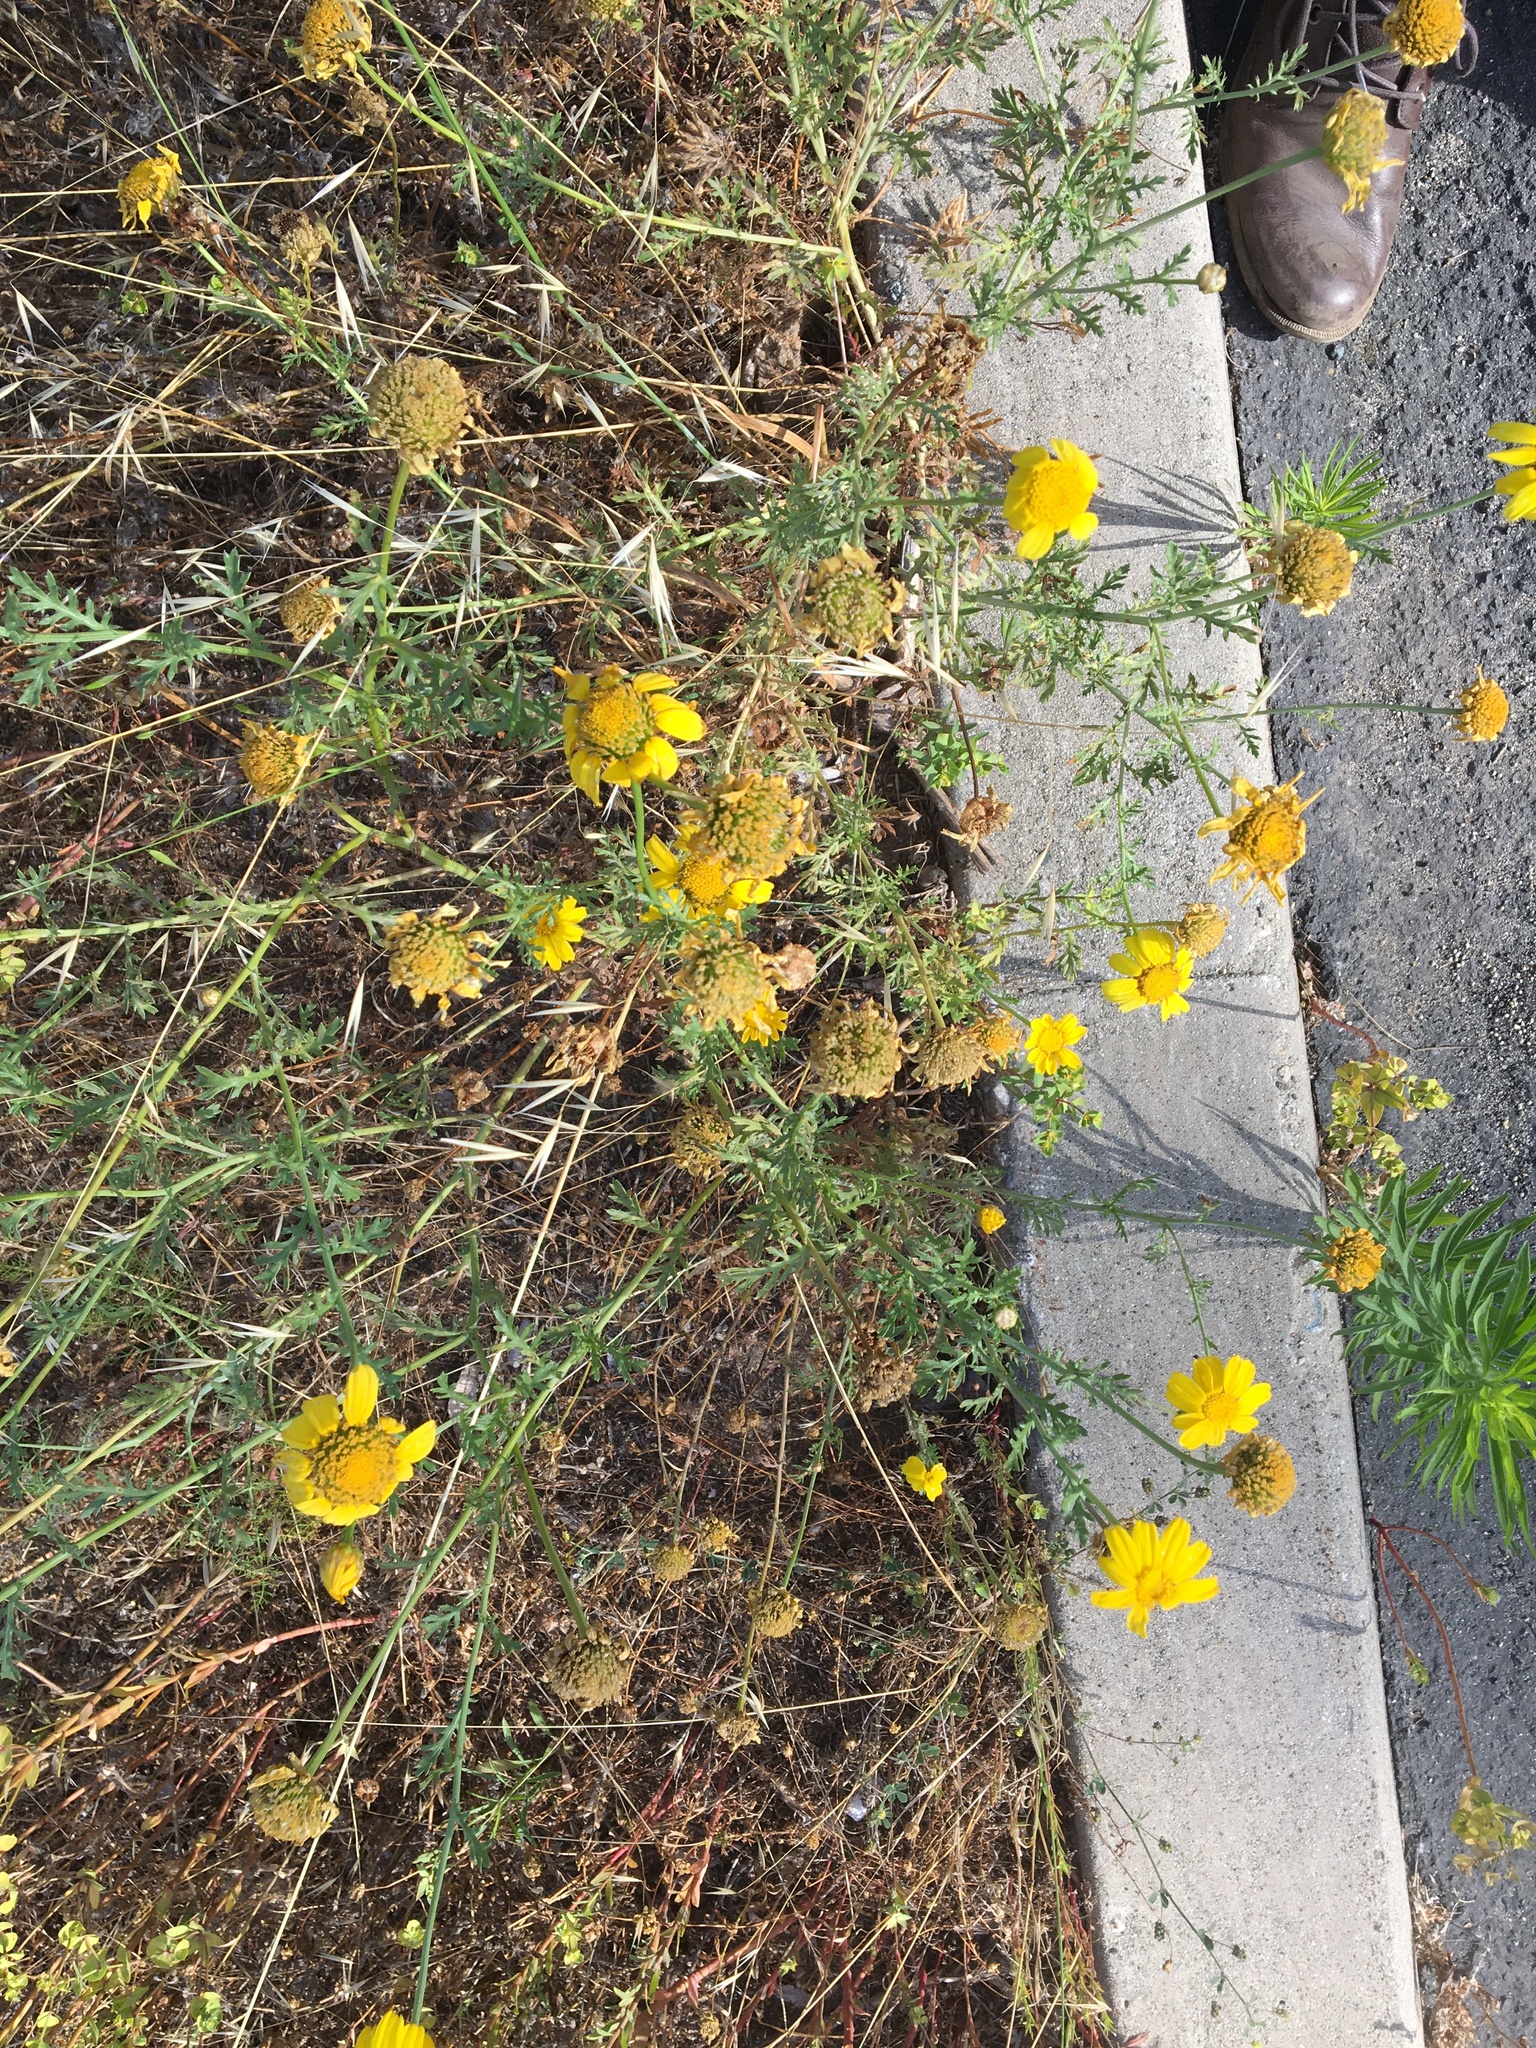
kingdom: Plantae
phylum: Tracheophyta
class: Magnoliopsida
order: Asterales
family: Asteraceae
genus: Glebionis
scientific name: Glebionis coronaria
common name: Crowndaisy
